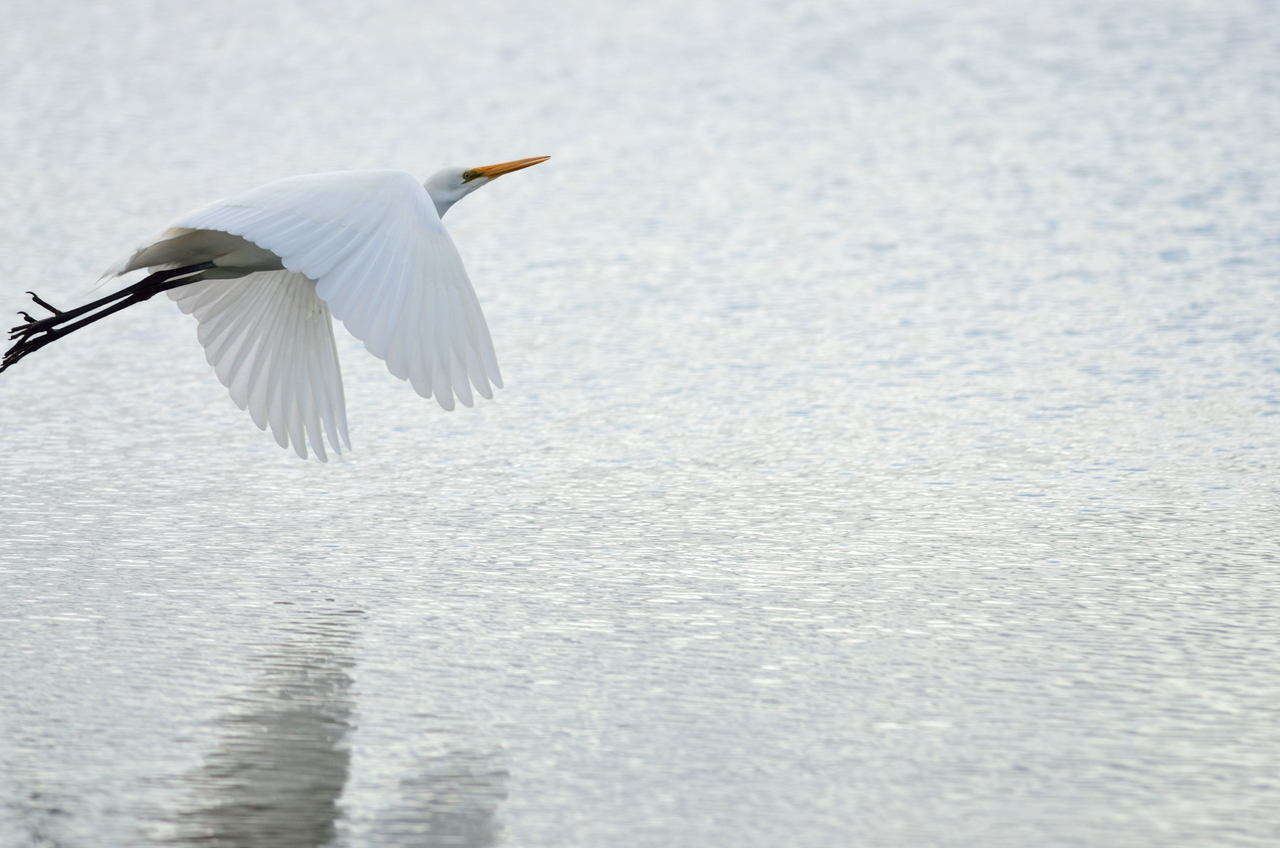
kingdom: Animalia
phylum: Chordata
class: Aves
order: Pelecaniformes
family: Ardeidae
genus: Ardea
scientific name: Ardea modesta
